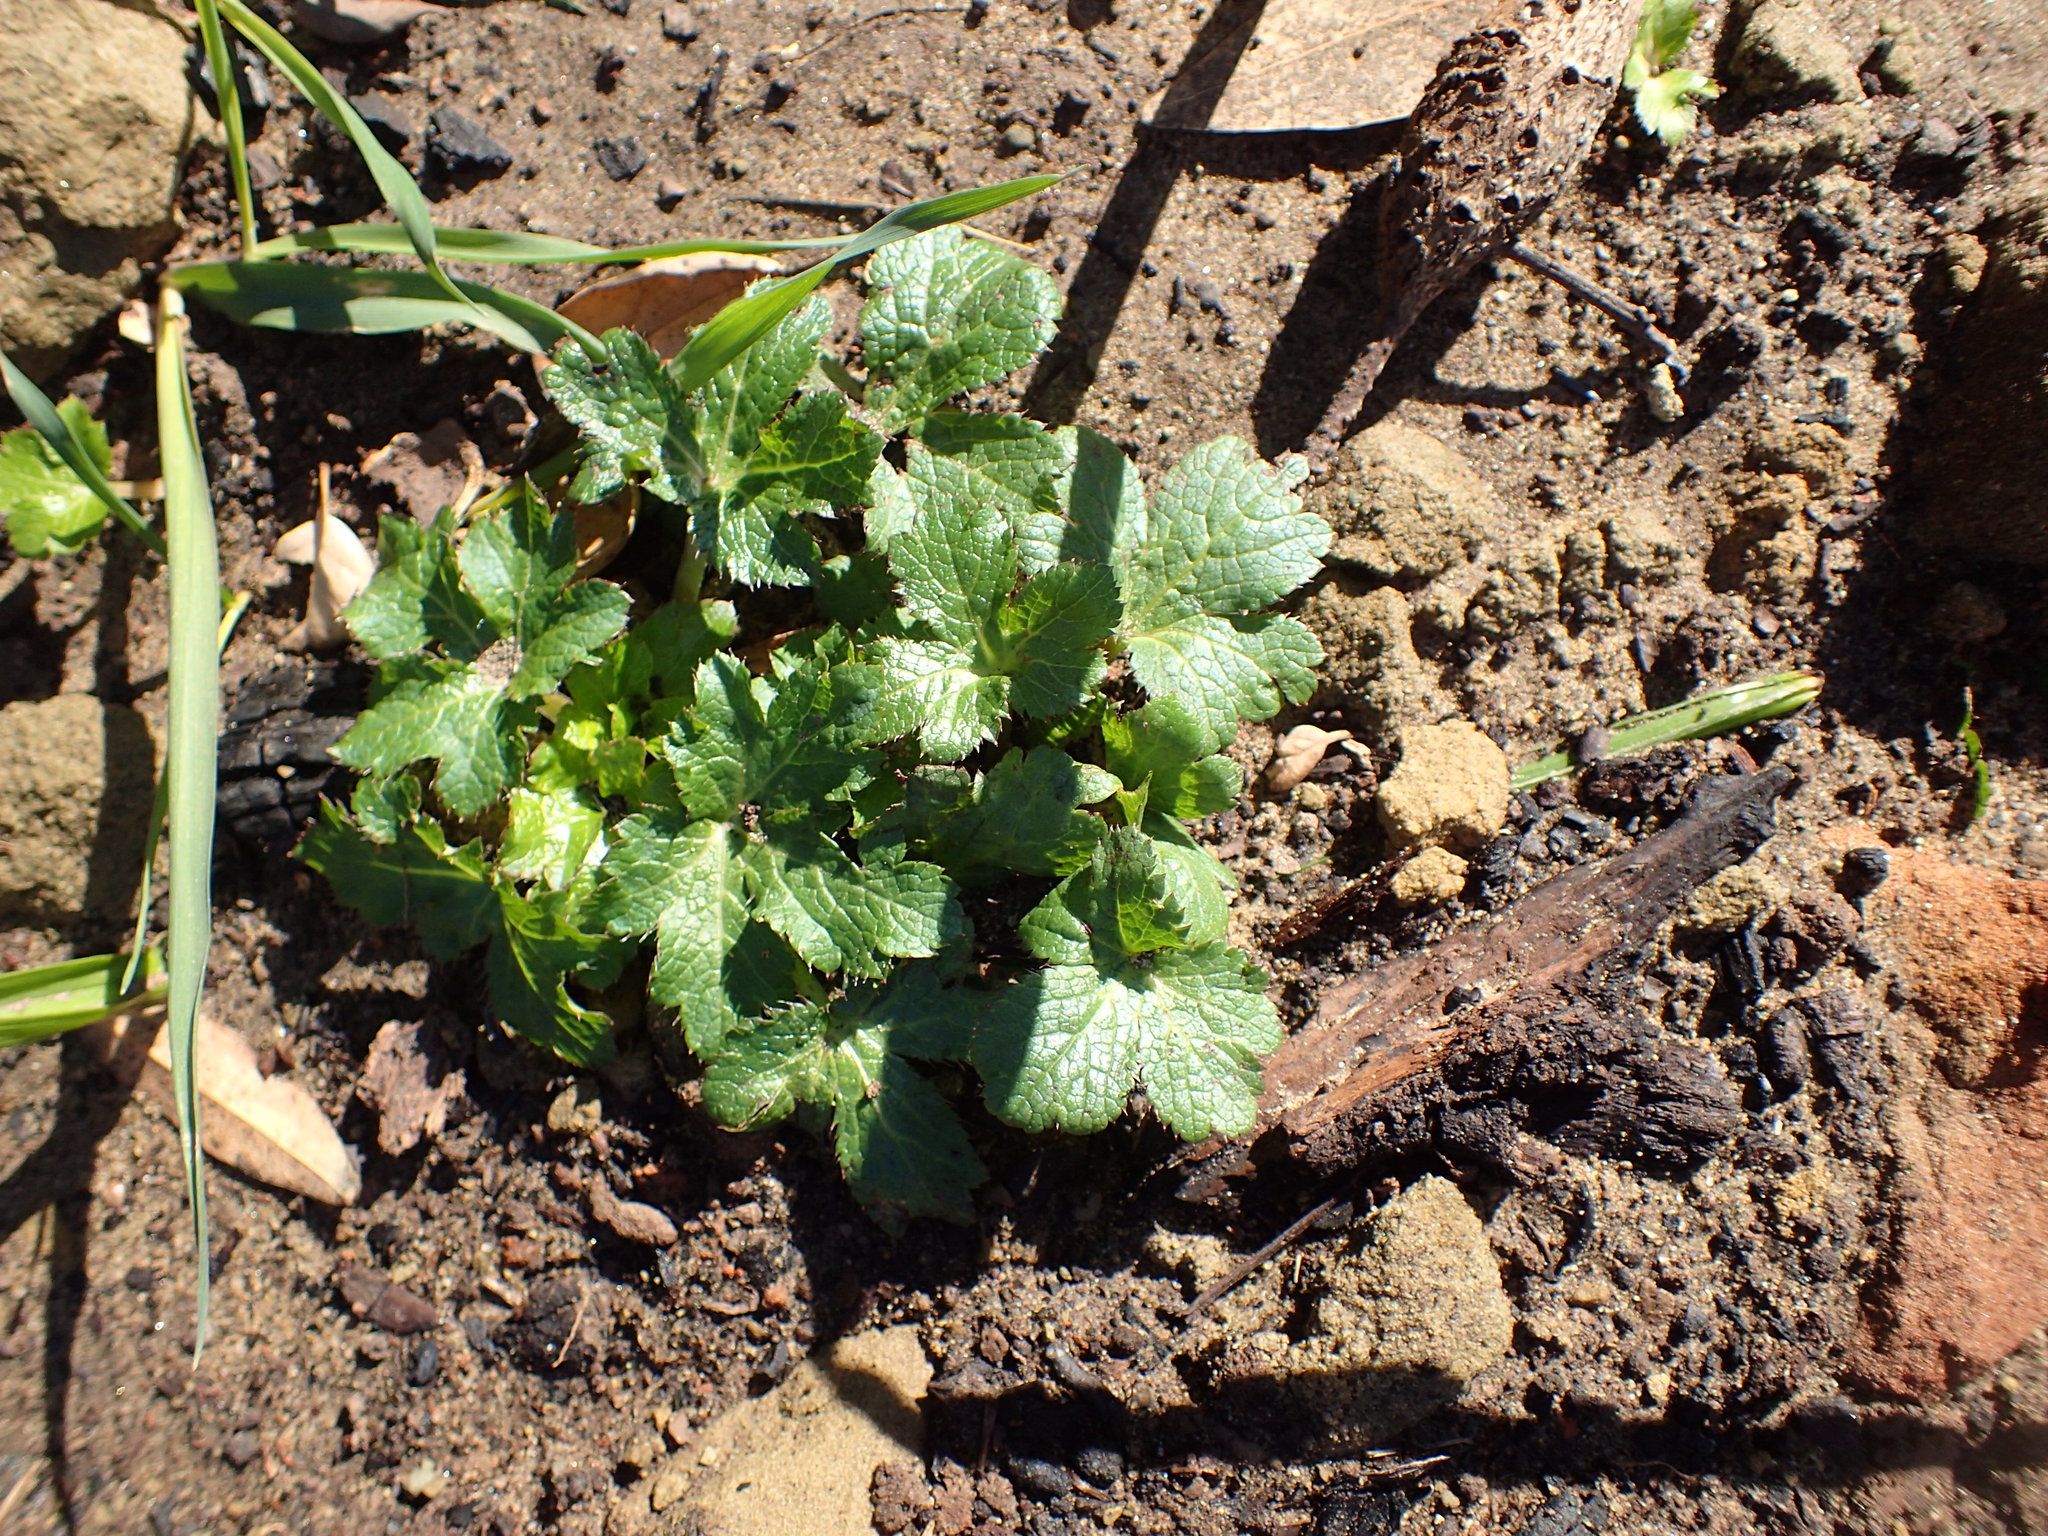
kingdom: Plantae
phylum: Tracheophyta
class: Magnoliopsida
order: Apiales
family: Apiaceae
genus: Sanicula
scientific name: Sanicula crassicaulis
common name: Western snakeroot
